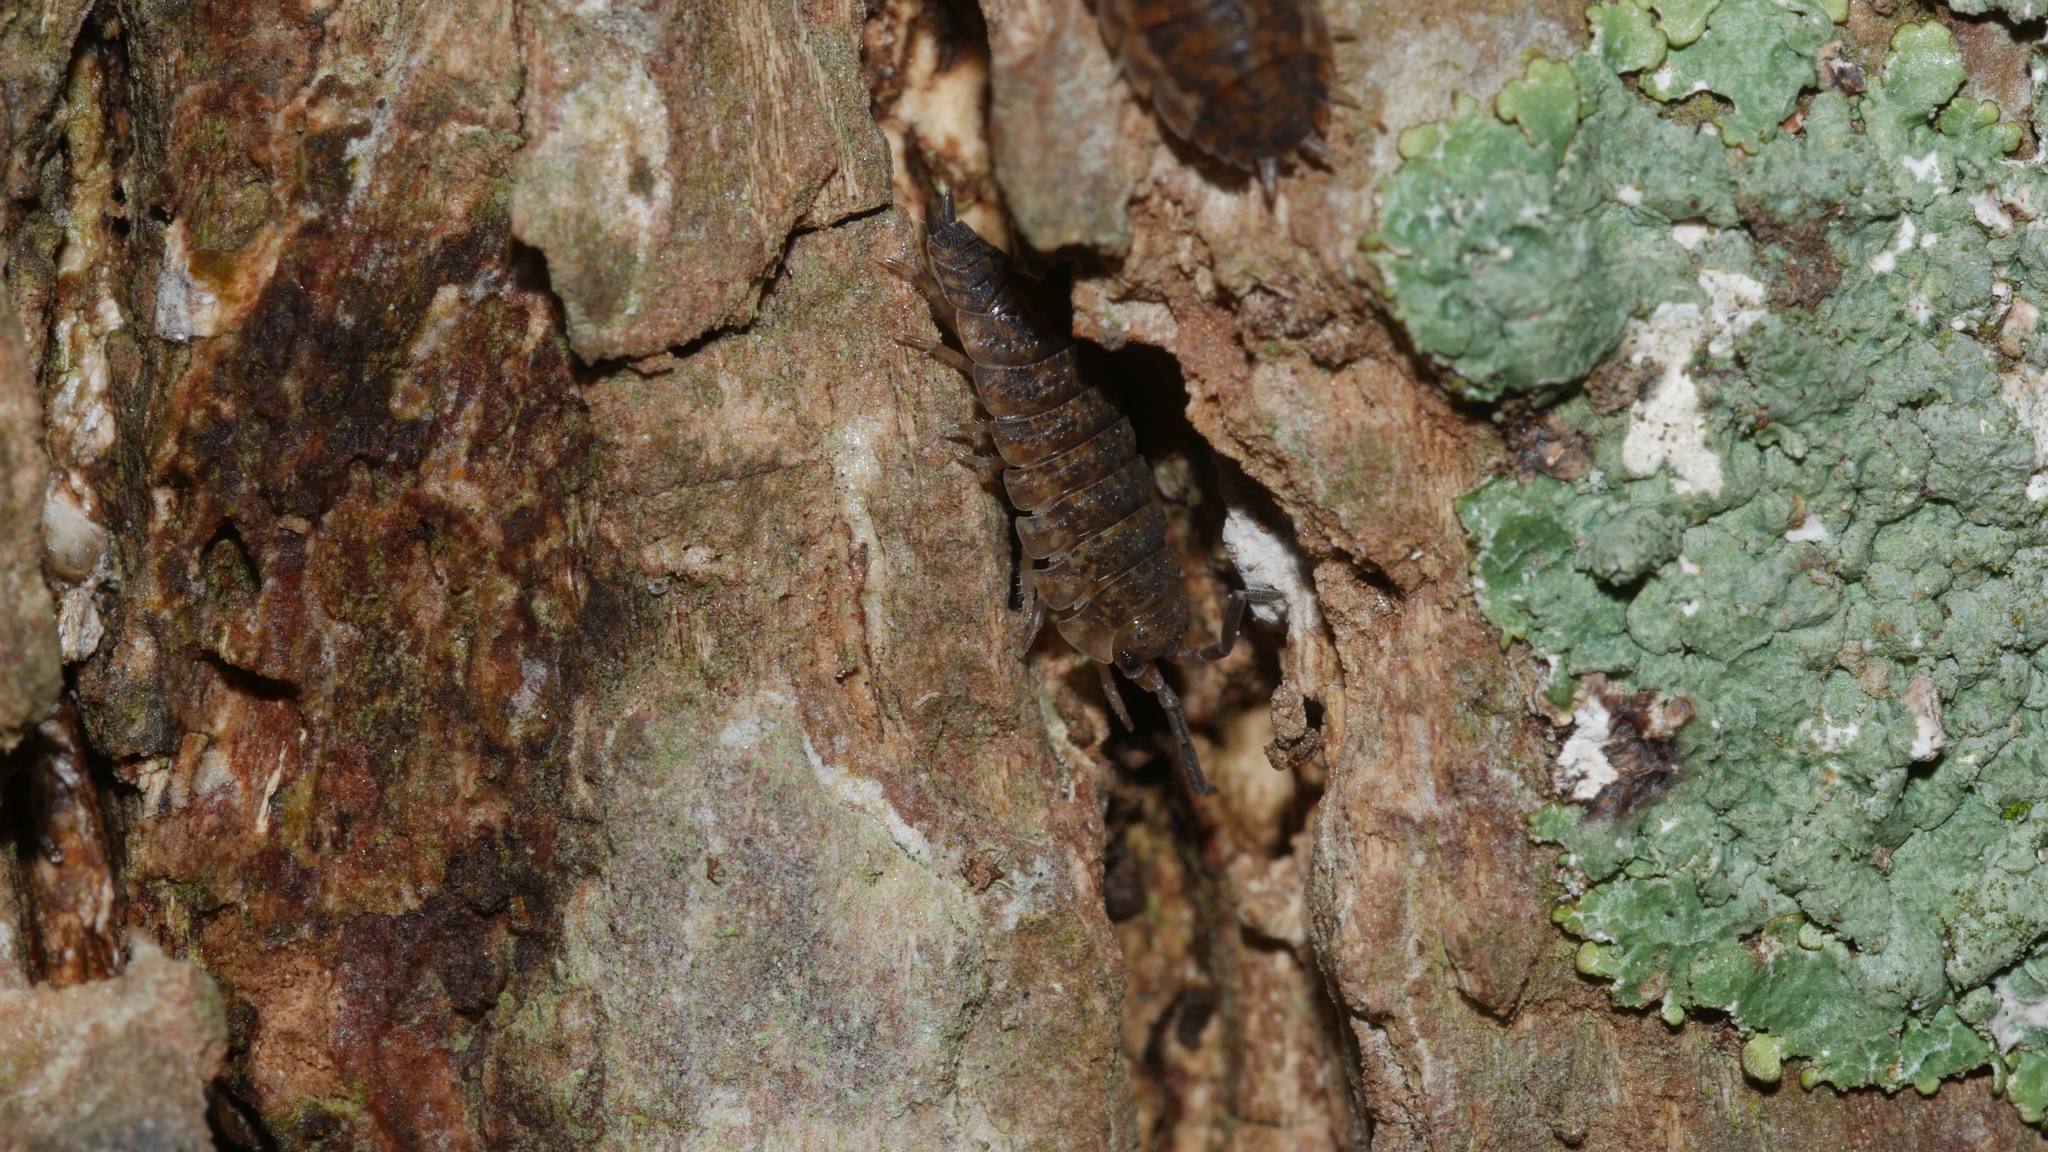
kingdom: Animalia
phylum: Arthropoda
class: Malacostraca
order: Isopoda
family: Porcellionidae
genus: Porcellio
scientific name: Porcellio scaber
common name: Common rough woodlouse
